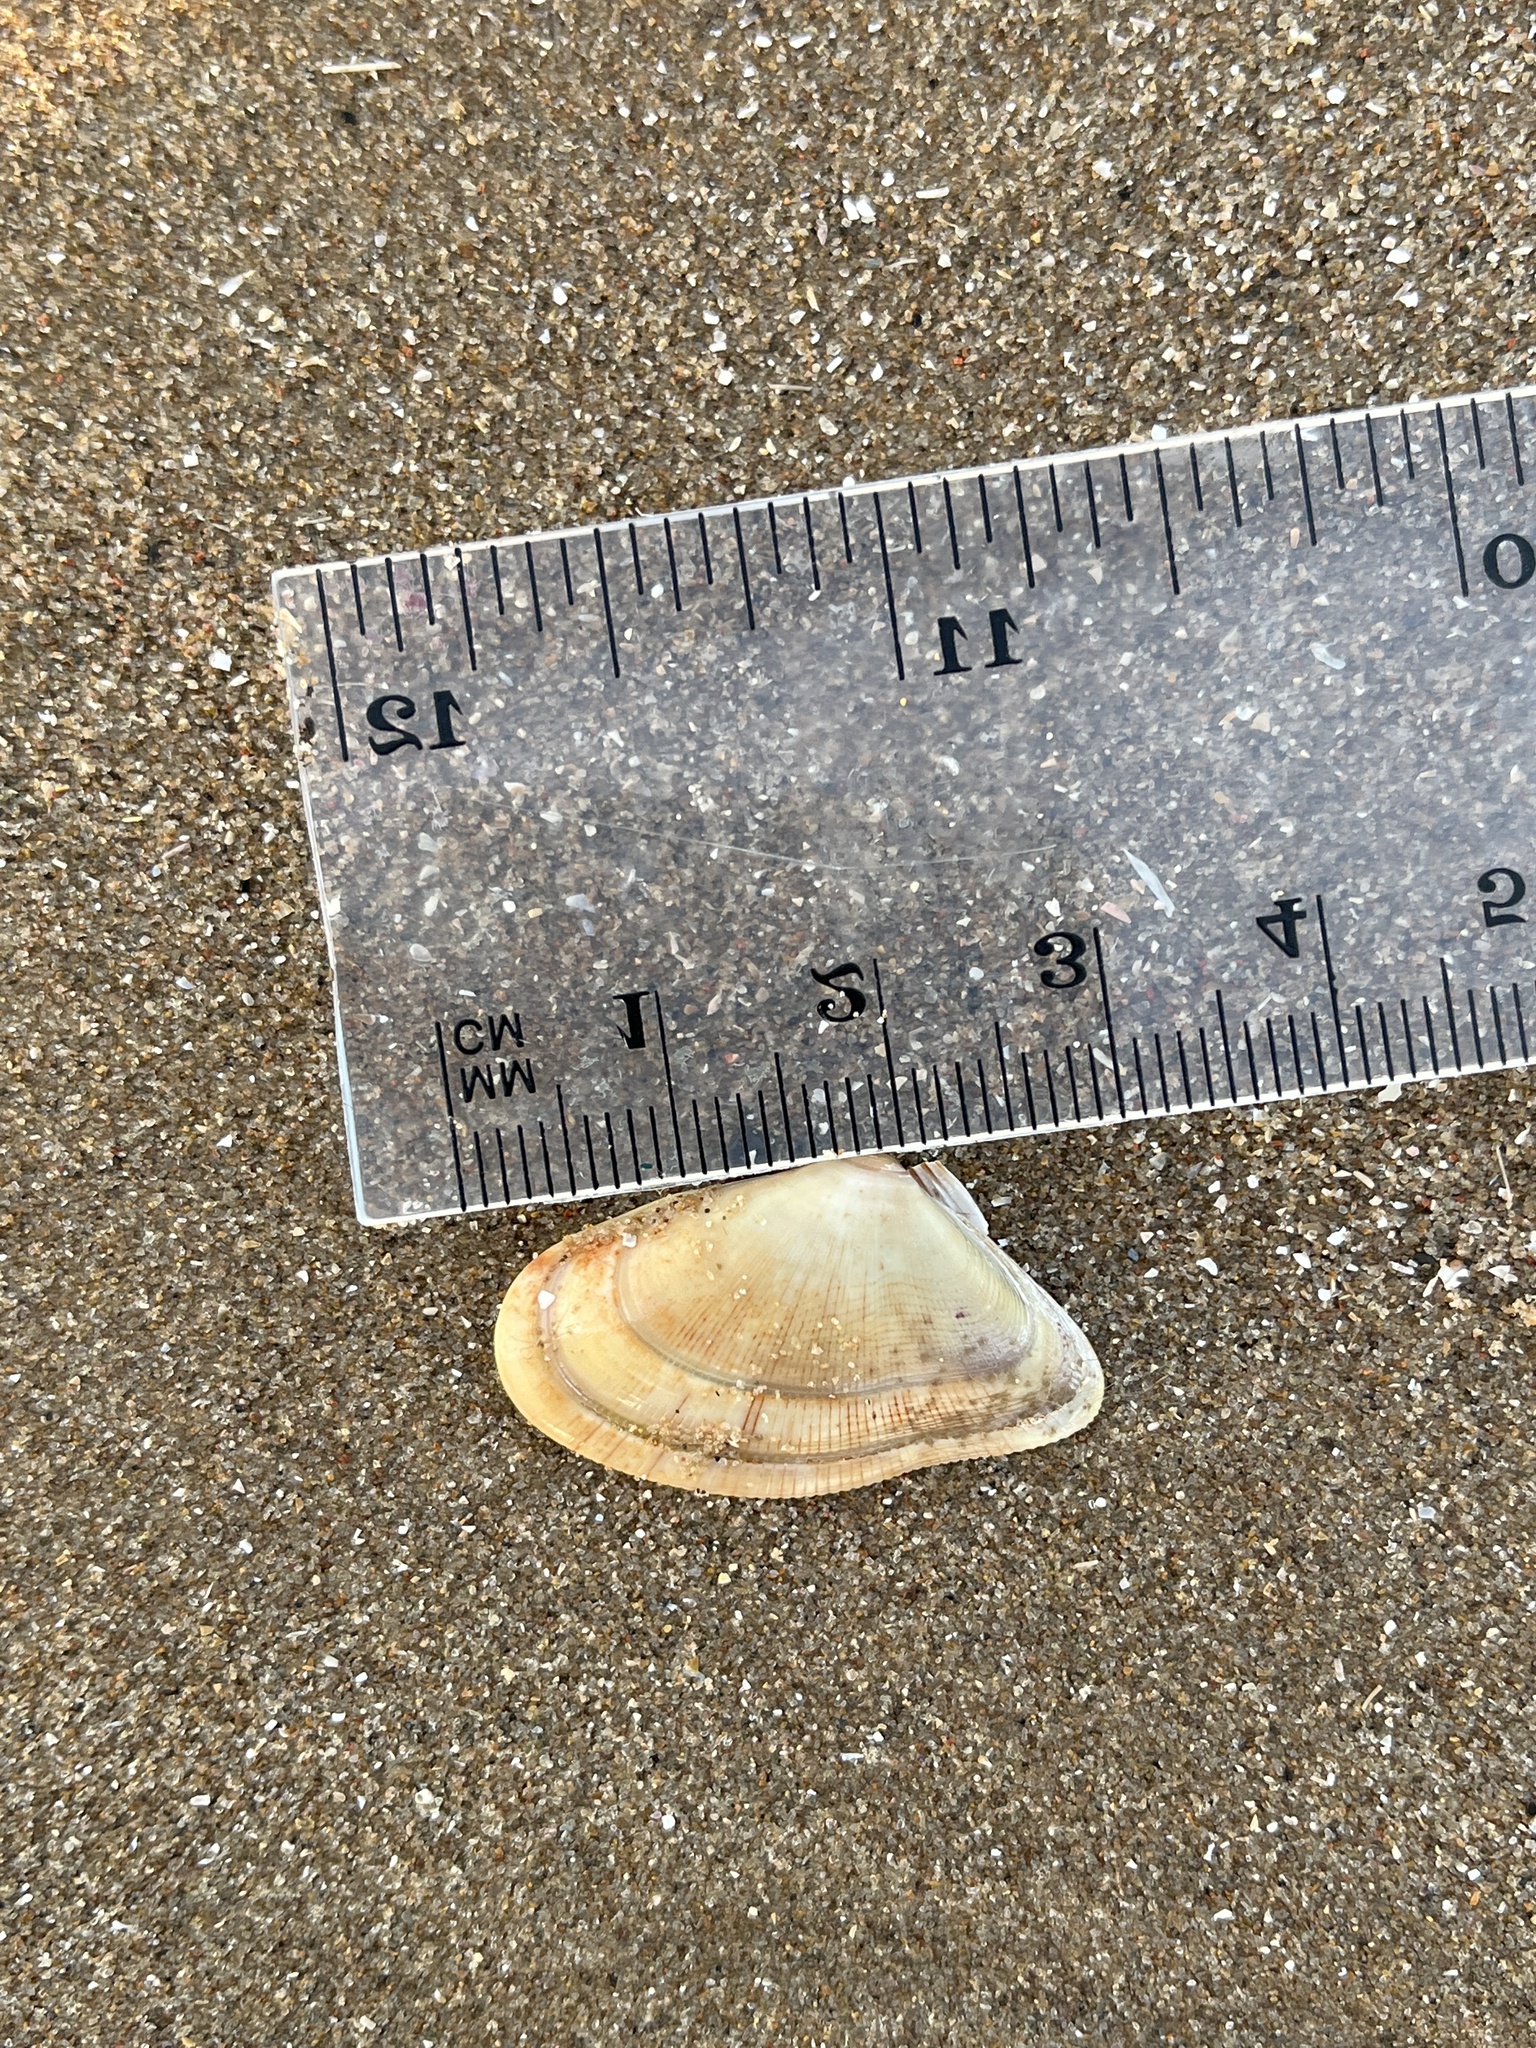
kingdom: Animalia
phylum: Mollusca
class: Bivalvia
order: Cardiida
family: Donacidae
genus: Donax
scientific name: Donax vittatus
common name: Banded wedge-shell
